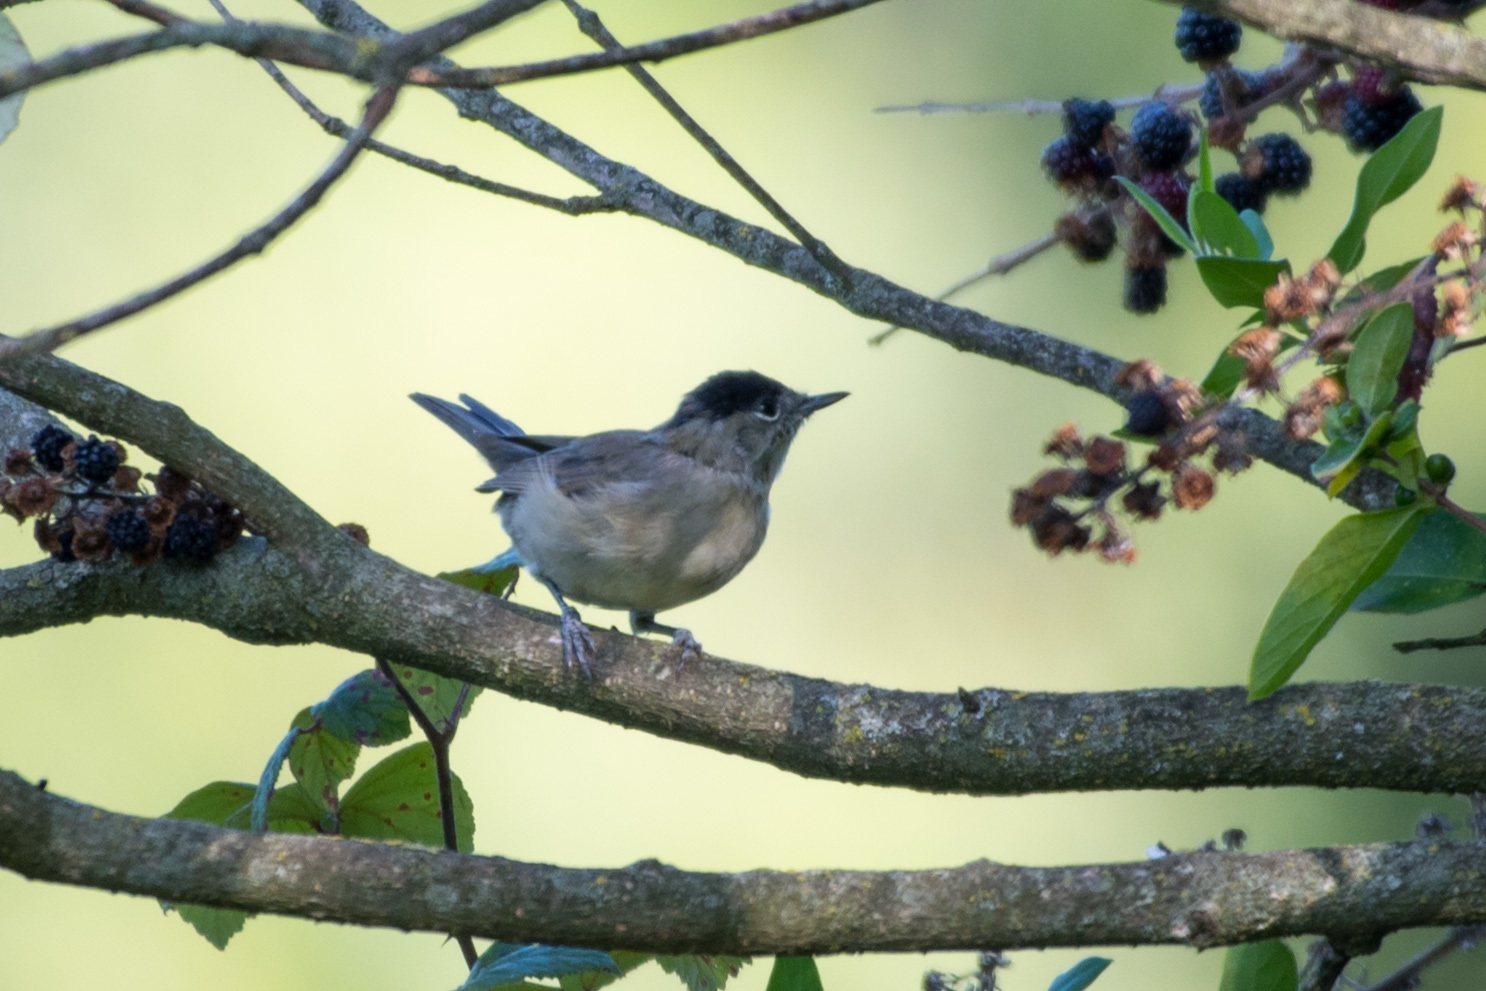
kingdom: Animalia
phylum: Chordata
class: Aves
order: Passeriformes
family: Sylviidae
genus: Sylvia
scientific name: Sylvia atricapilla
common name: Eurasian blackcap
